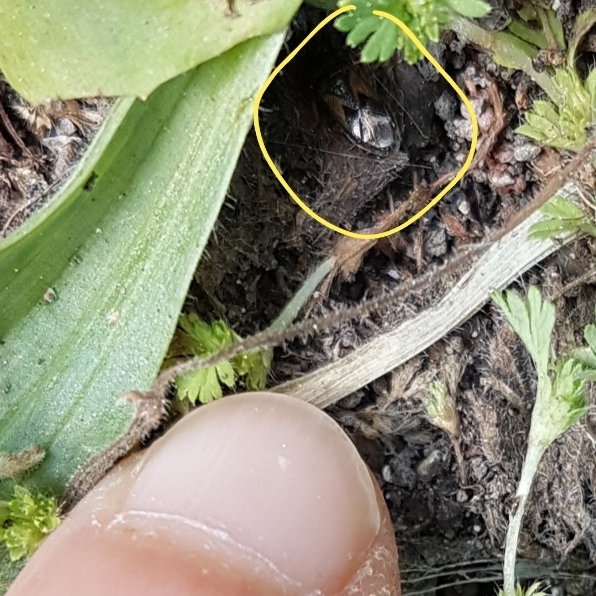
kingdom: Animalia
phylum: Arthropoda
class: Insecta
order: Hemiptera
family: Rhyparochromidae
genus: Megalonotus
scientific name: Megalonotus praetextatus
